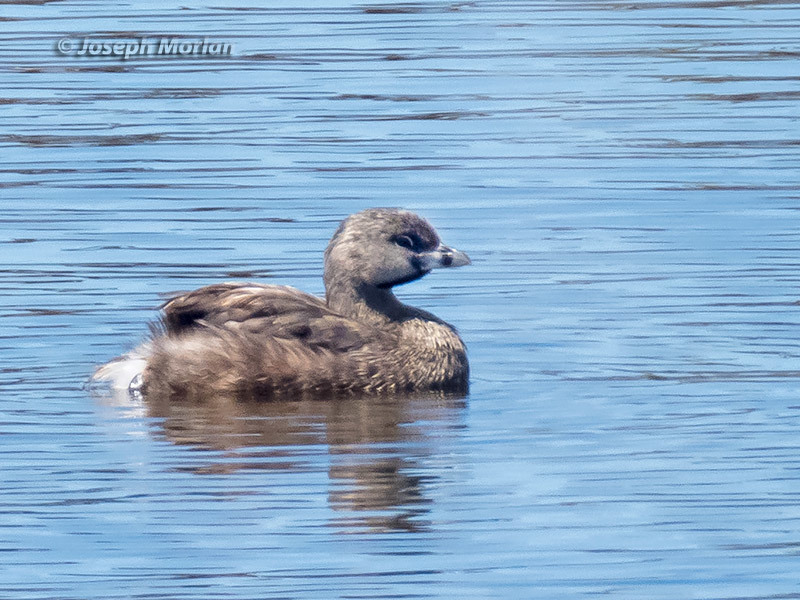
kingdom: Animalia
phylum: Chordata
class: Aves
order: Podicipediformes
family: Podicipedidae
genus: Podilymbus
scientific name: Podilymbus podiceps
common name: Pied-billed grebe
